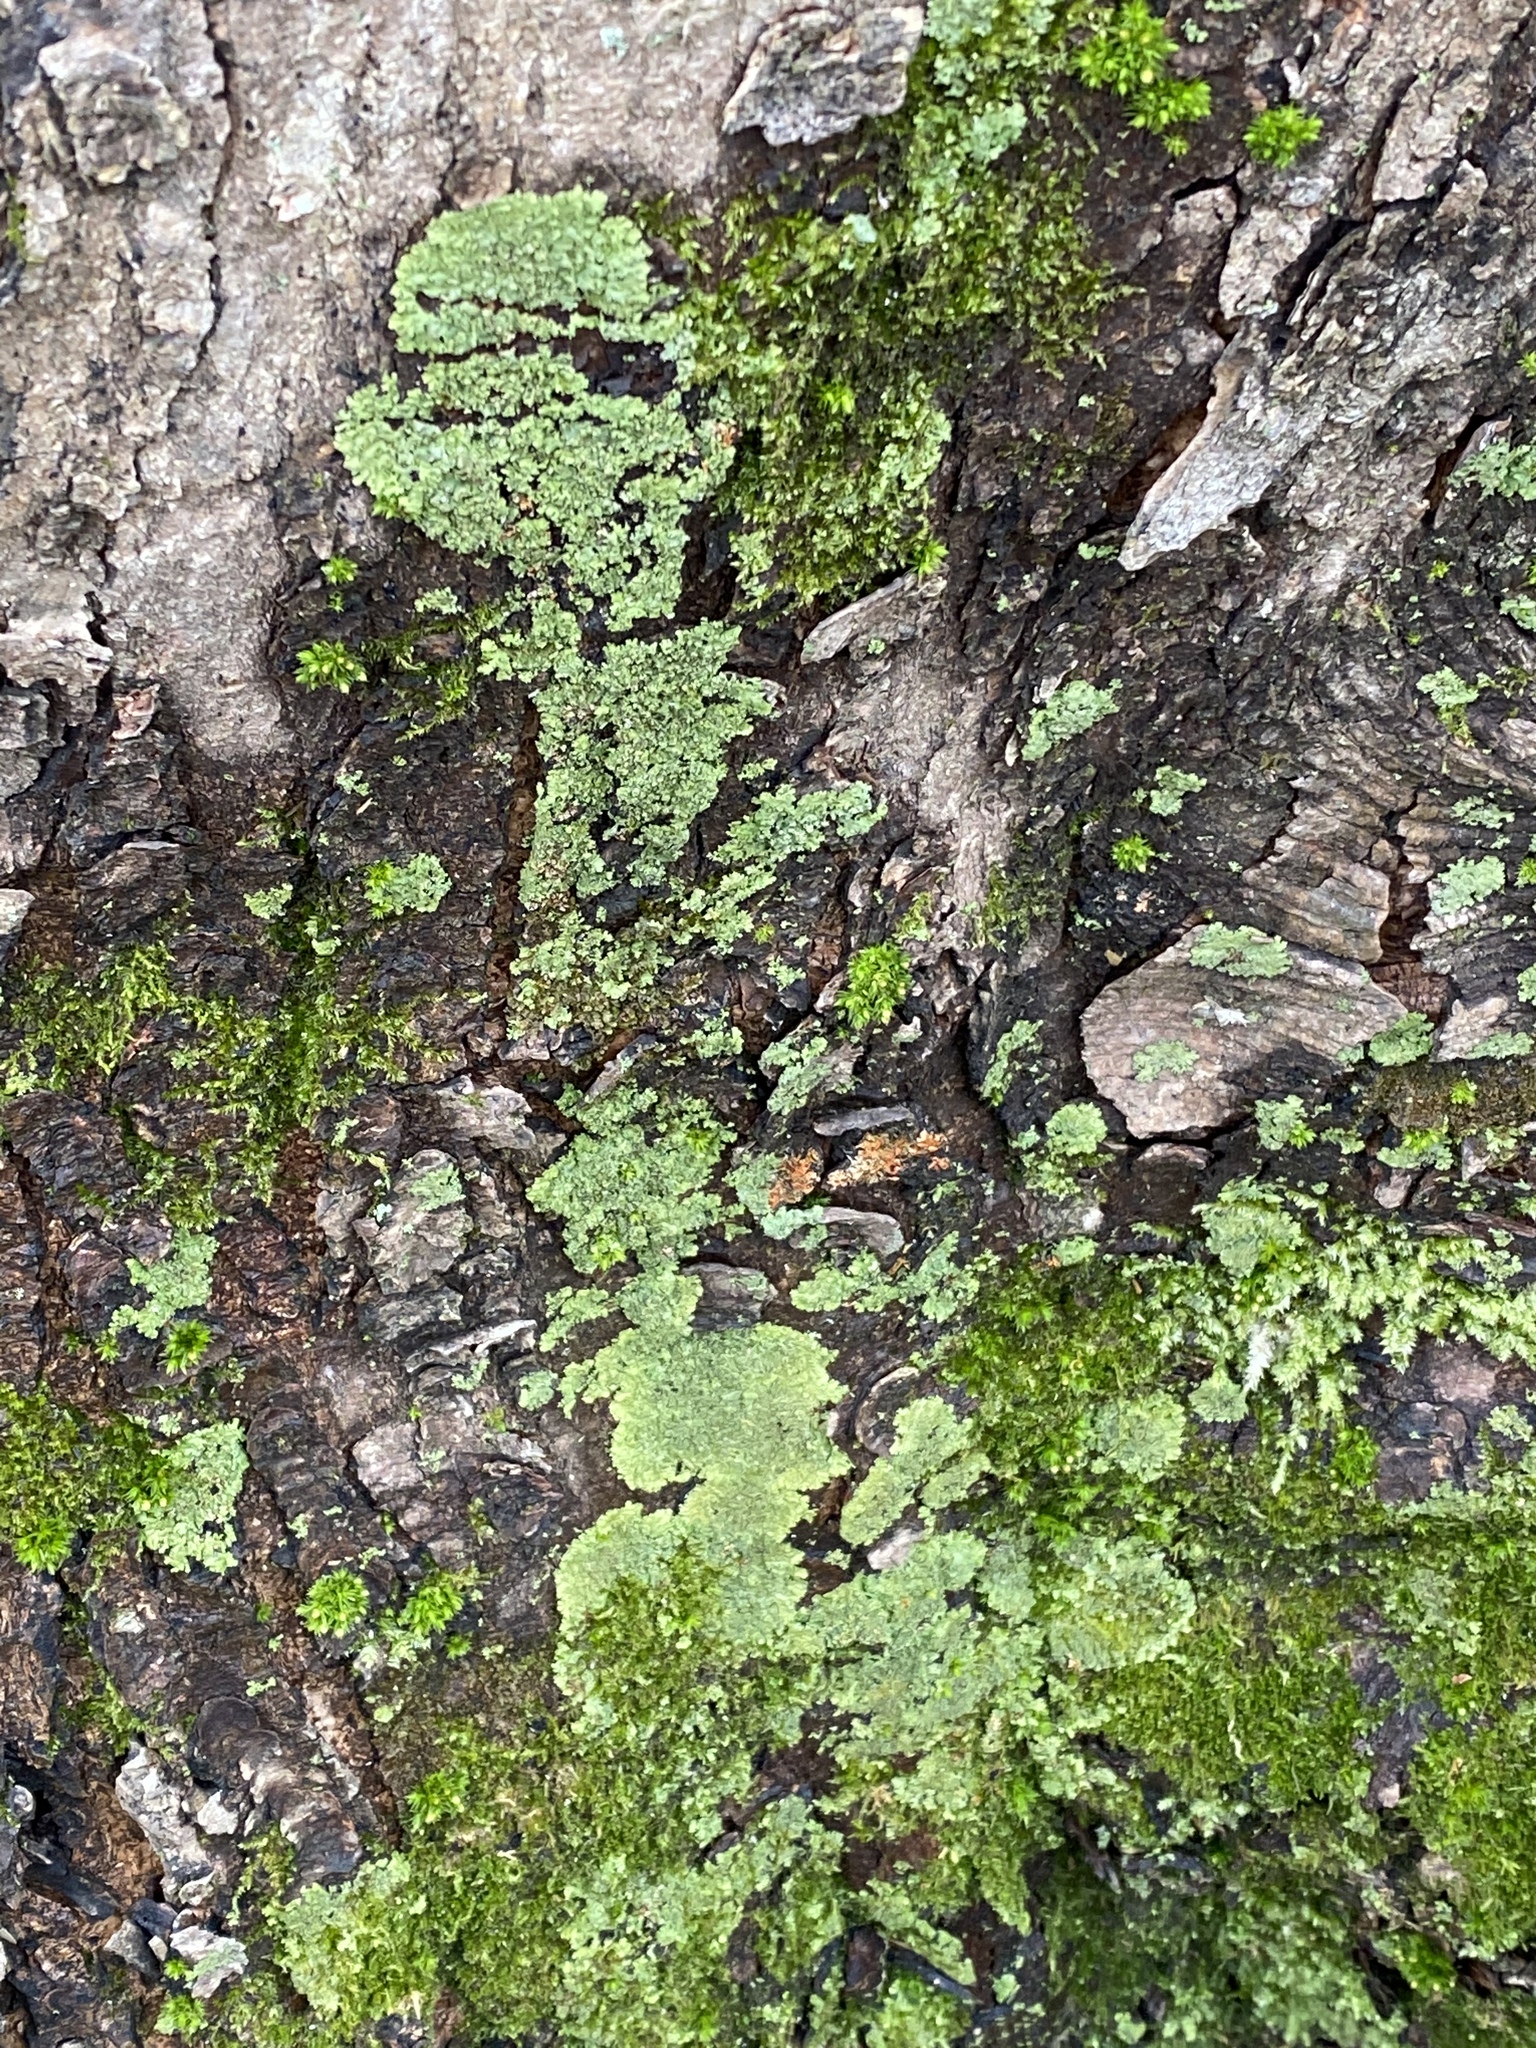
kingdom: Fungi
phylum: Ascomycota
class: Lecanoromycetes
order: Caliciales
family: Physciaceae
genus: Phaeophyscia
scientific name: Phaeophyscia rubropulchra
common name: Orange-cored shadow lichen
